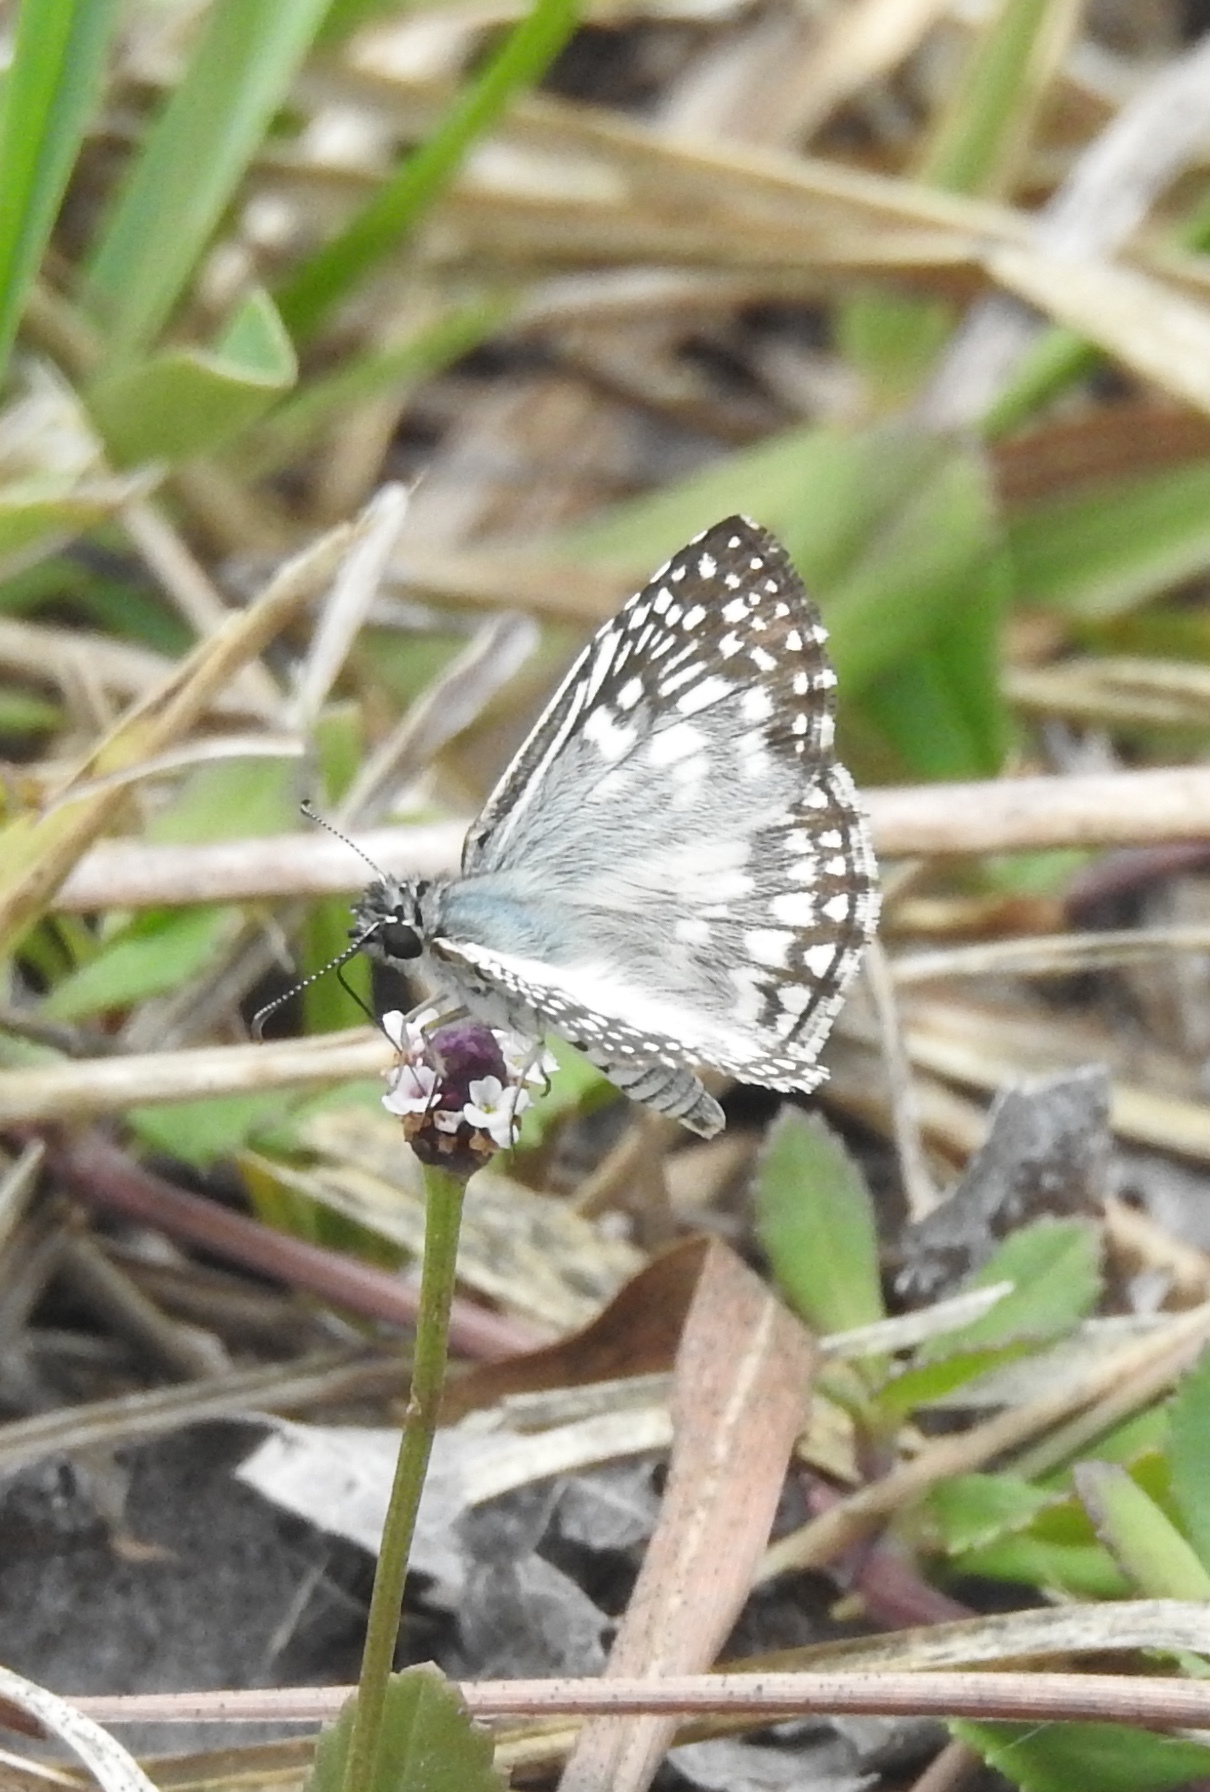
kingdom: Animalia
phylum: Arthropoda
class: Insecta
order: Lepidoptera
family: Hesperiidae
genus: Pyrgus
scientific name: Pyrgus oileus
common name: Tropical checkered-skipper
